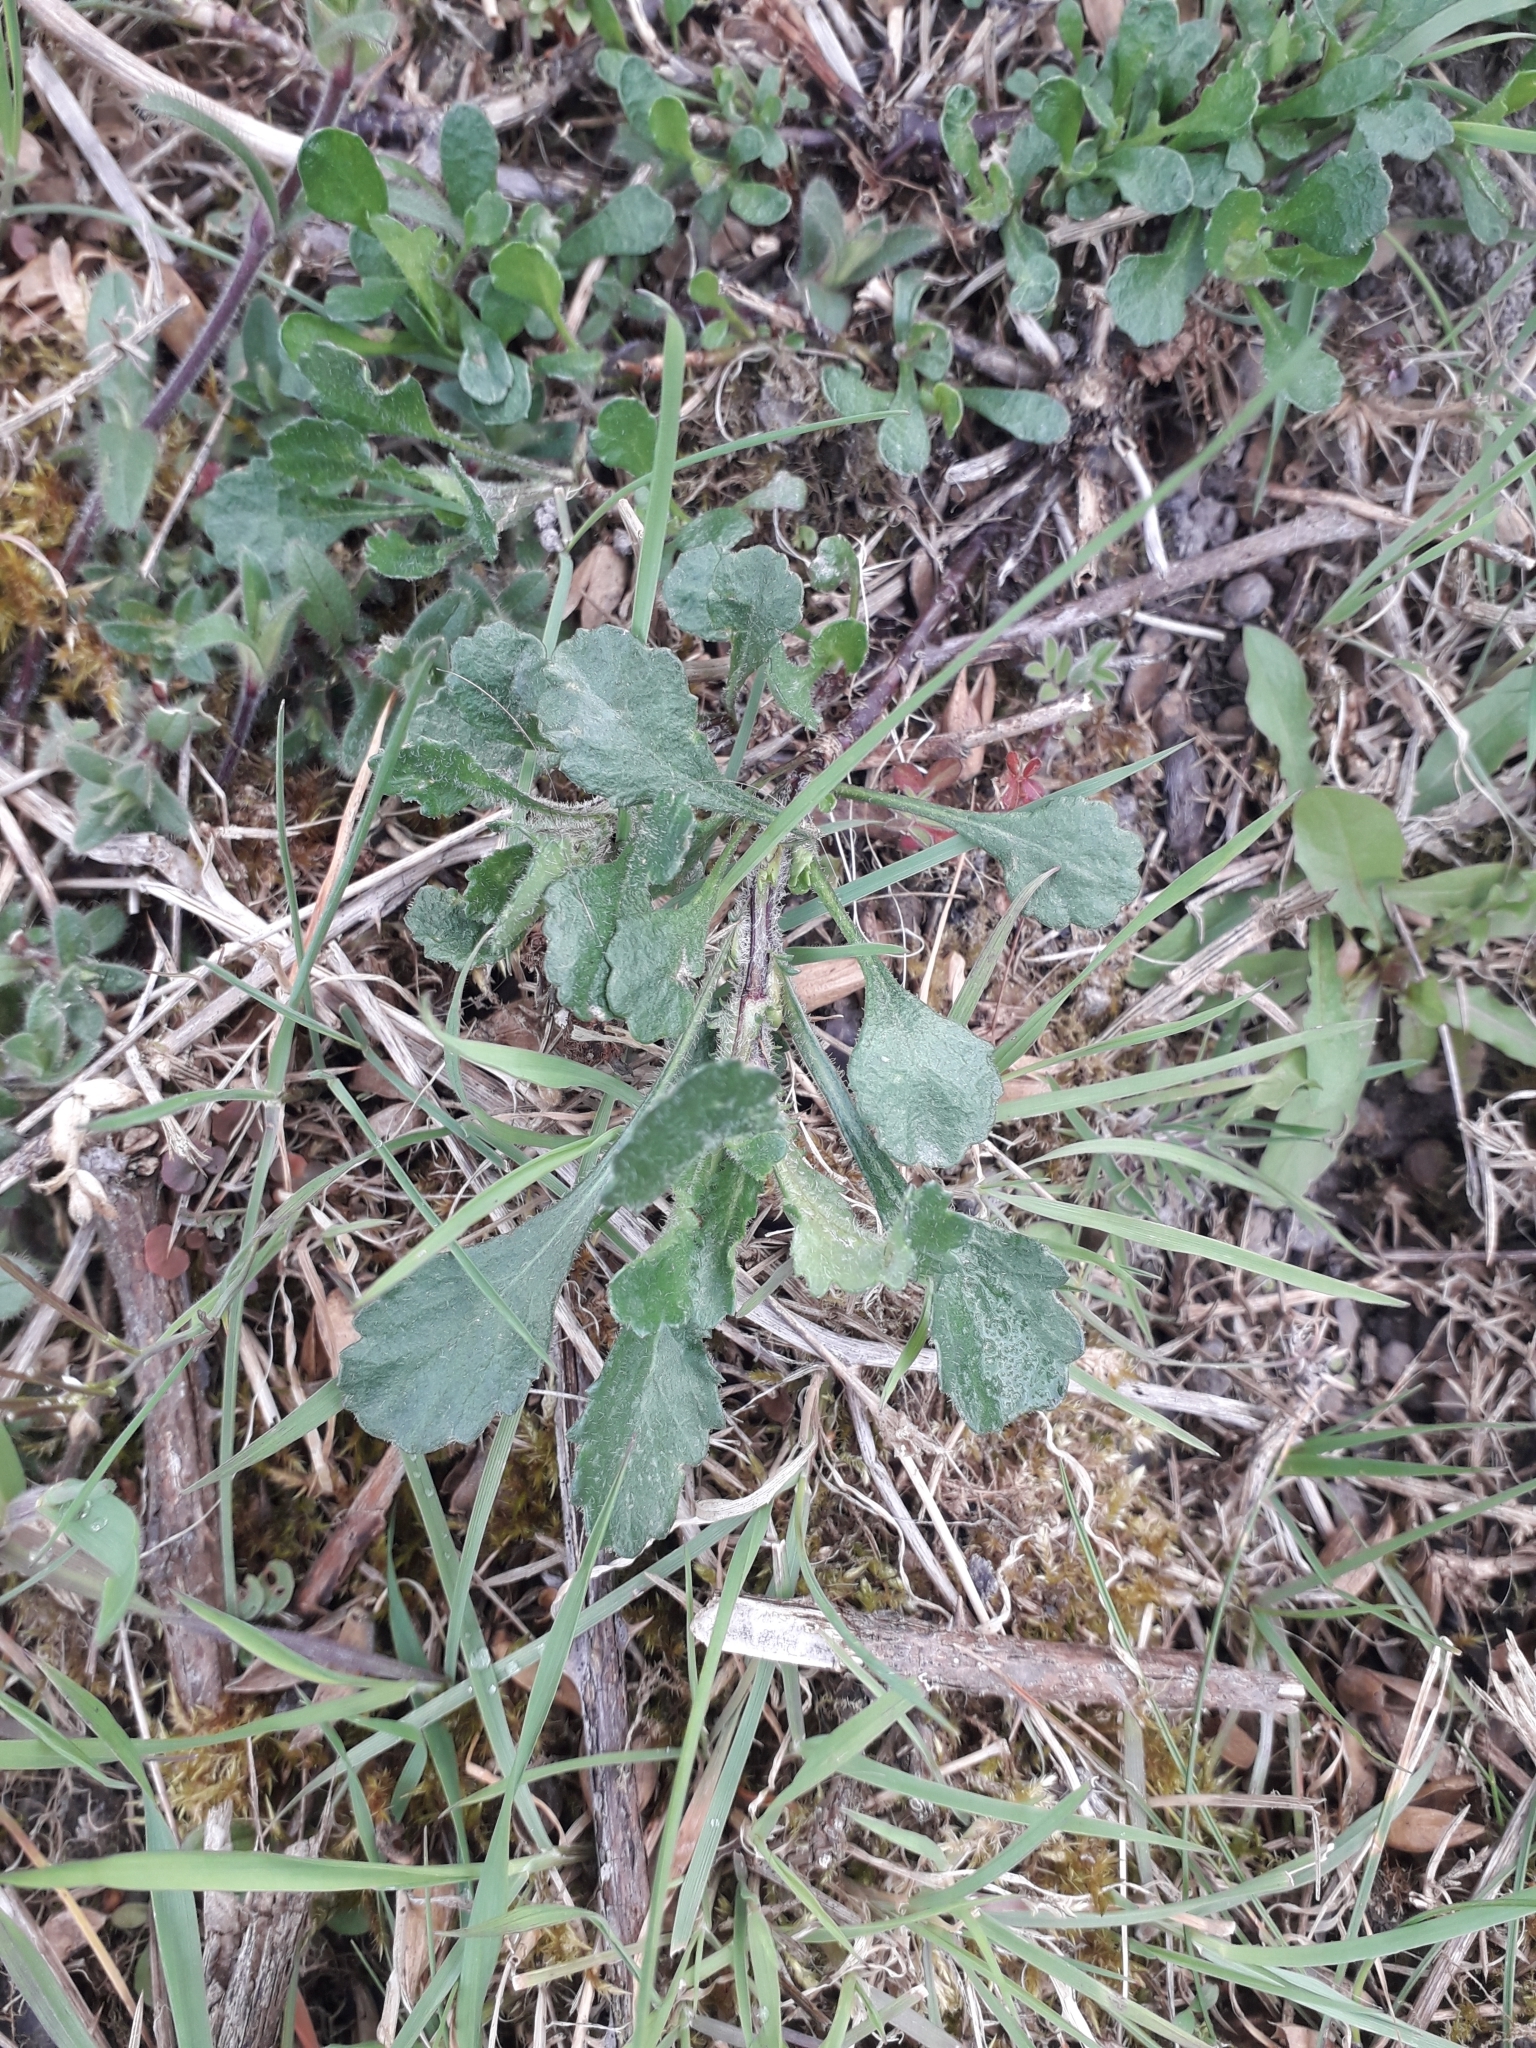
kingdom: Plantae
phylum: Tracheophyta
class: Magnoliopsida
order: Asterales
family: Asteraceae
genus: Leucanthemum
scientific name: Leucanthemum vulgare
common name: Oxeye daisy
